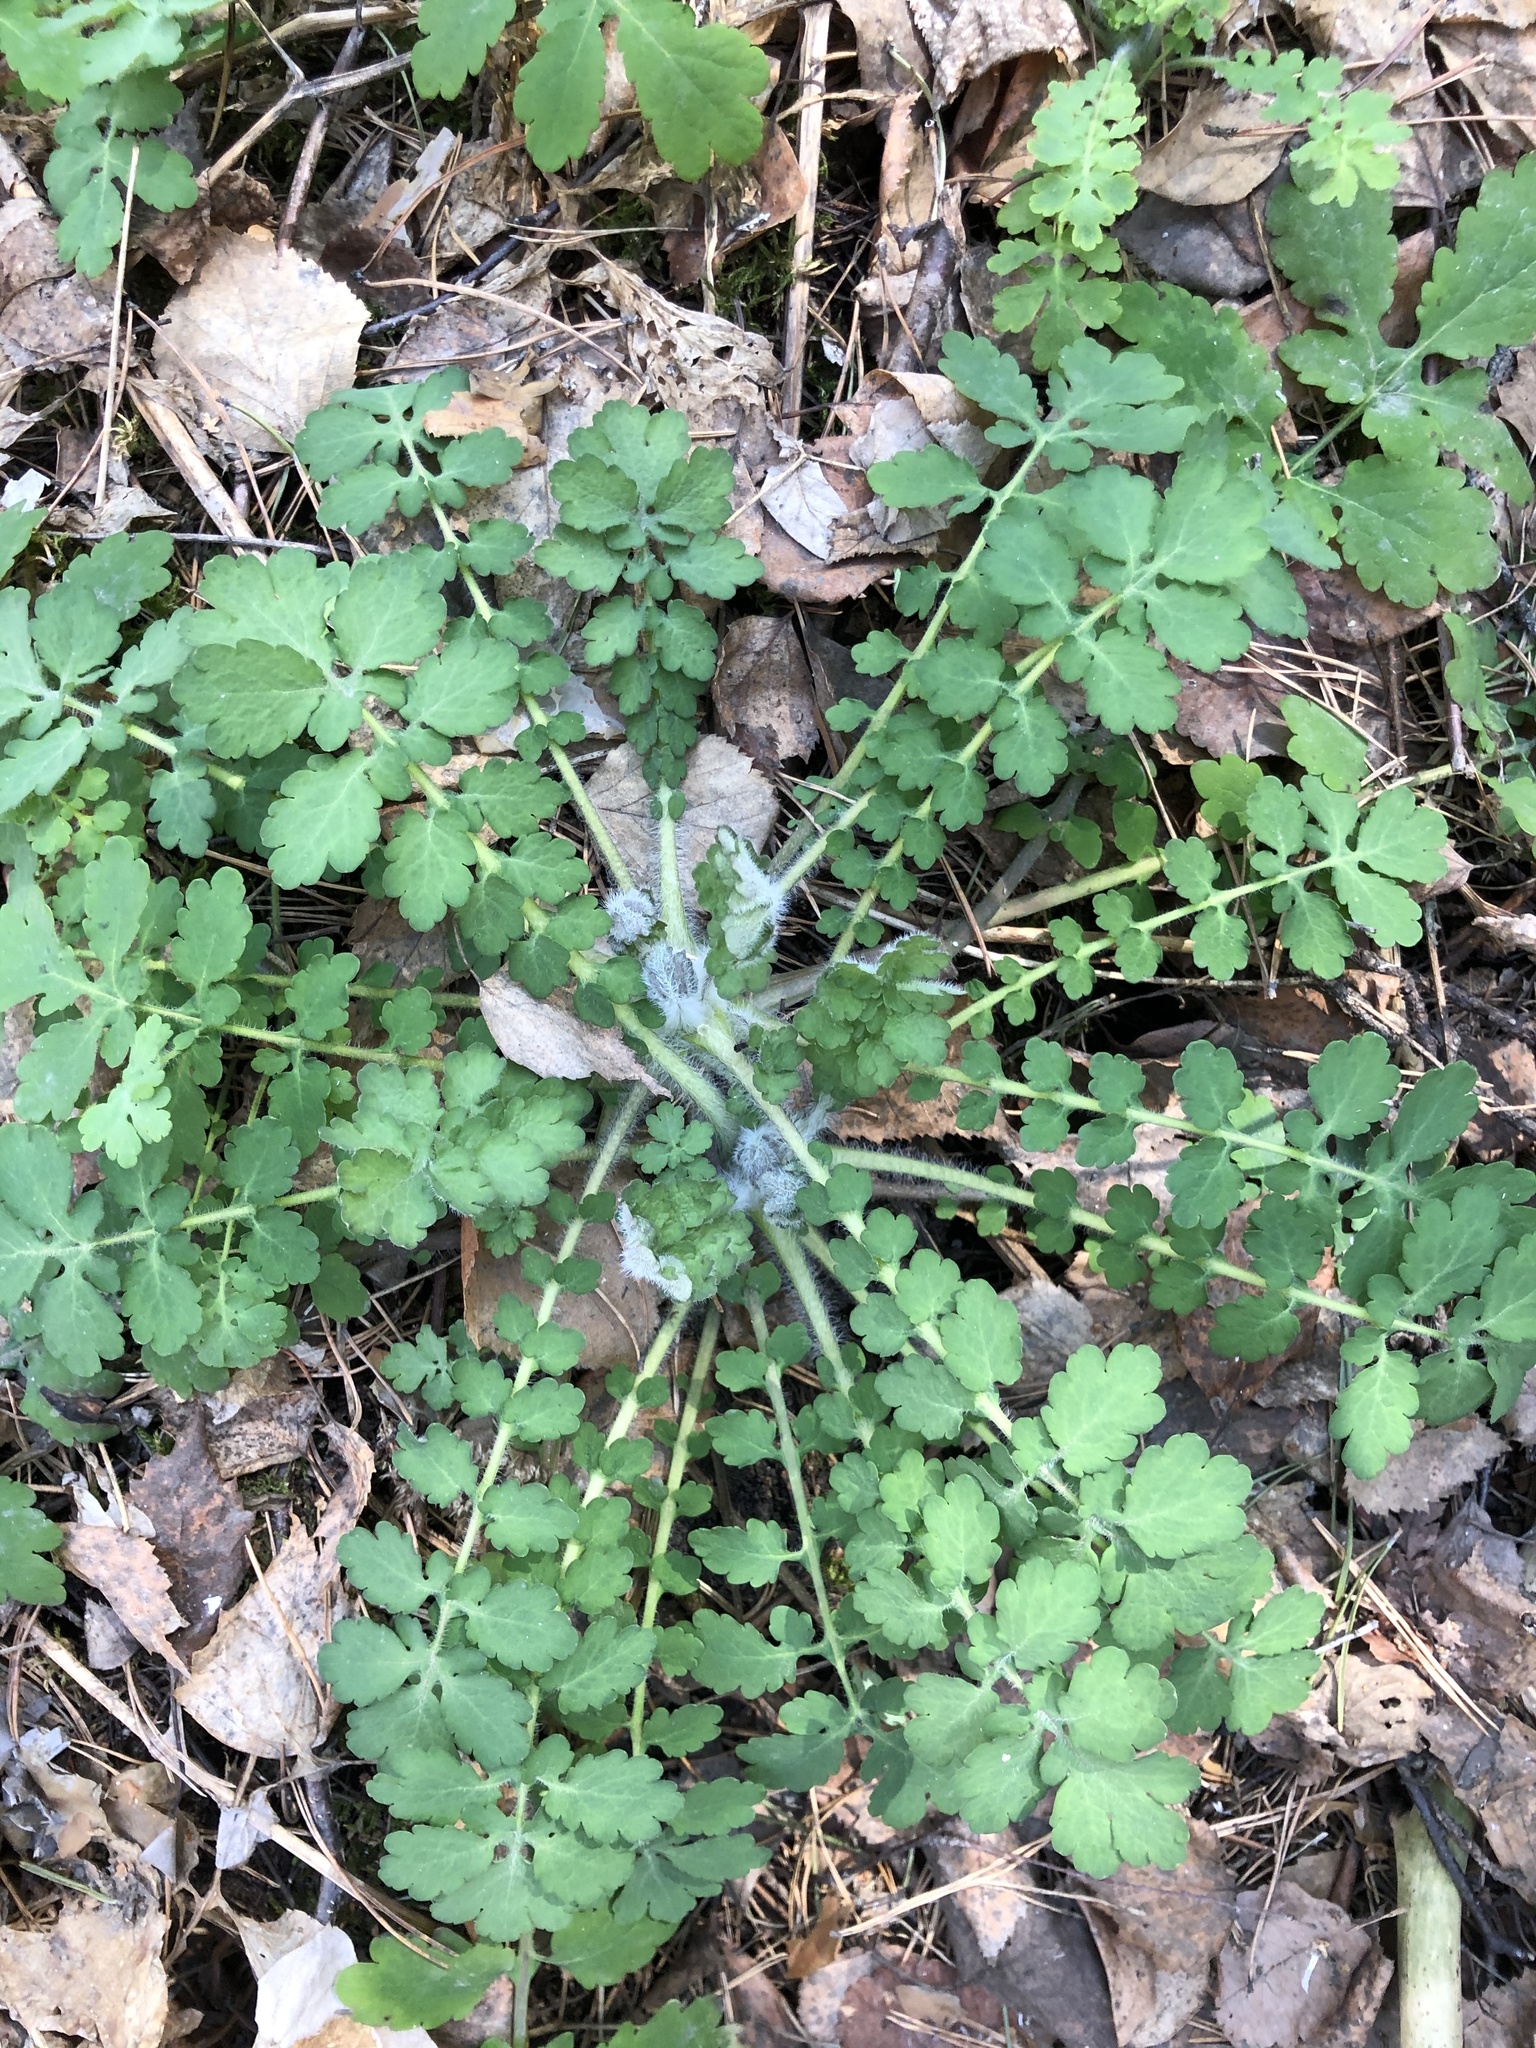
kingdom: Plantae
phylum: Tracheophyta
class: Magnoliopsida
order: Ranunculales
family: Papaveraceae
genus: Chelidonium
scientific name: Chelidonium majus
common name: Greater celandine
